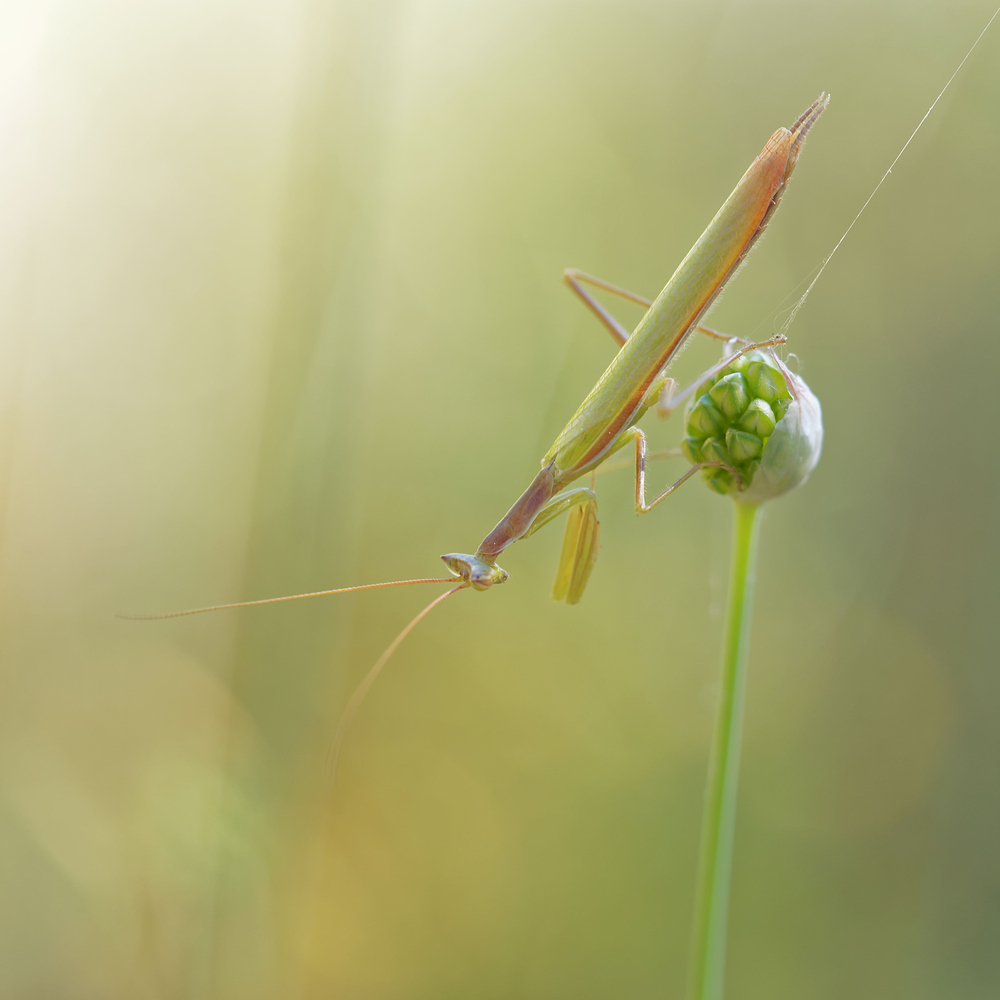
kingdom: Animalia
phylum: Arthropoda
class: Insecta
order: Mantodea
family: Amelidae
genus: Ameles
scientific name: Ameles picteti
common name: Pictet's dwarf mantis
